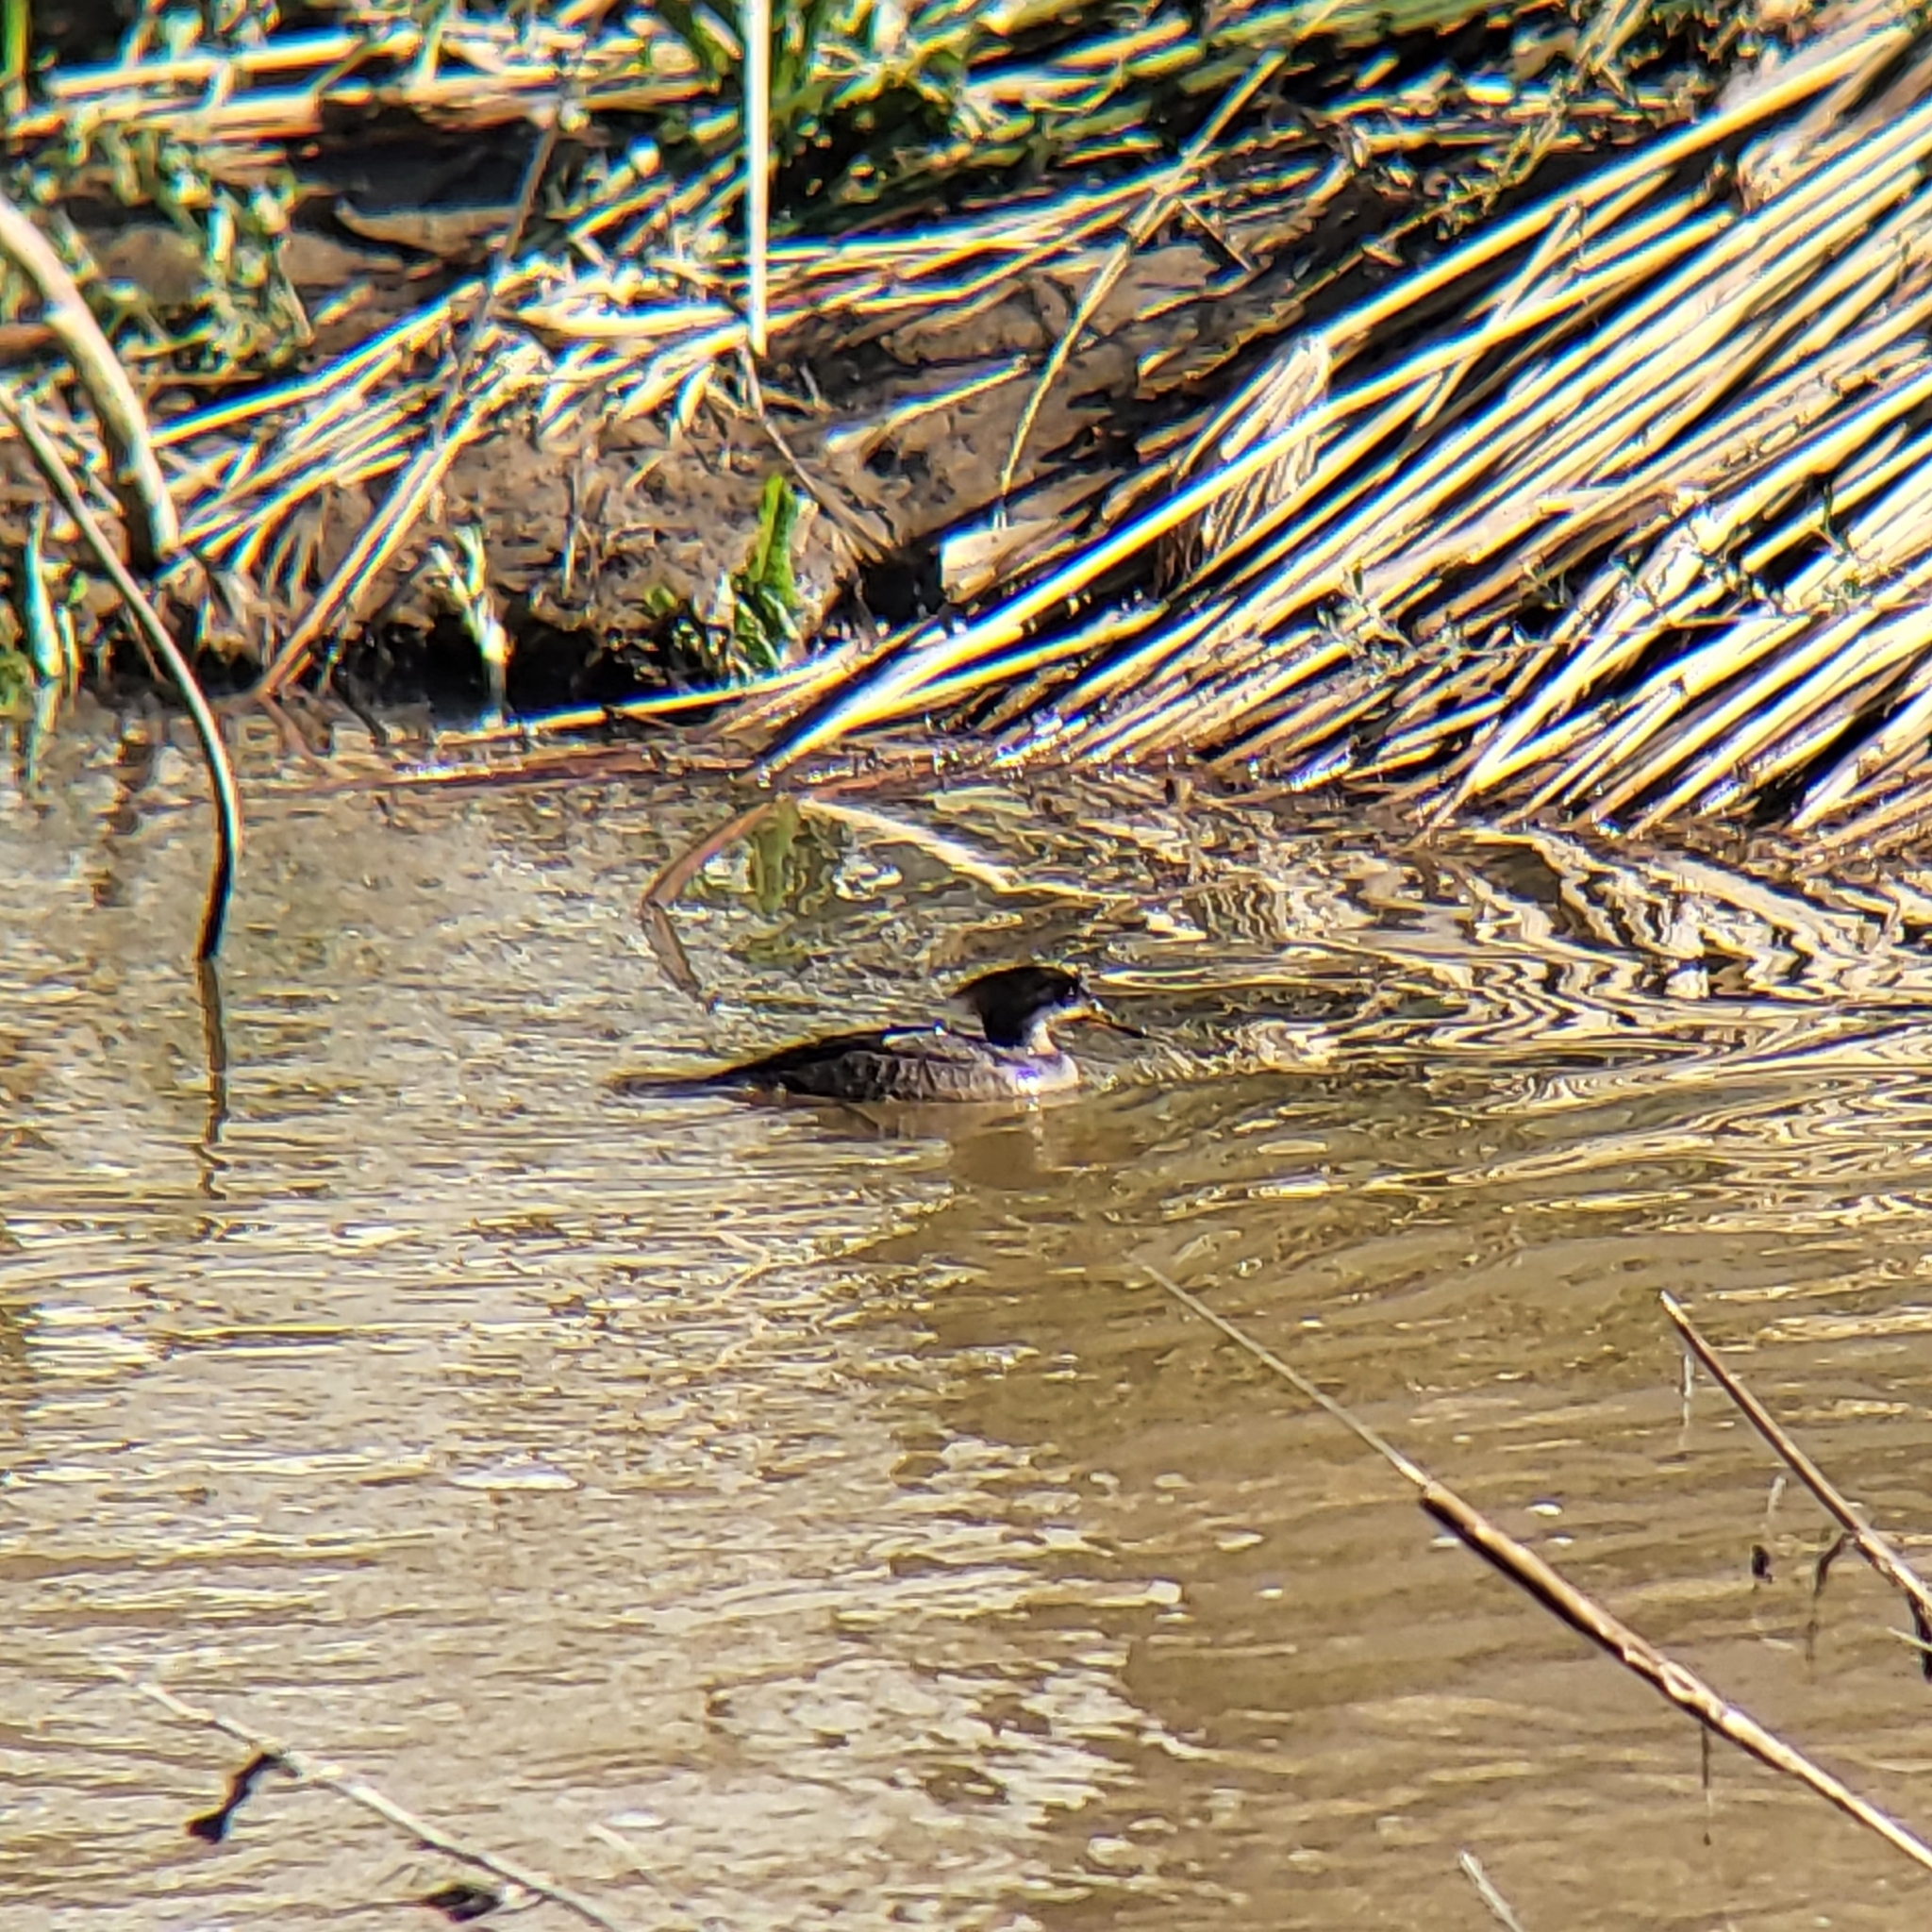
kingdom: Animalia
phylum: Chordata
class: Aves
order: Anseriformes
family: Anatidae
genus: Lophodytes
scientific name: Lophodytes cucullatus
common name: Hooded merganser
